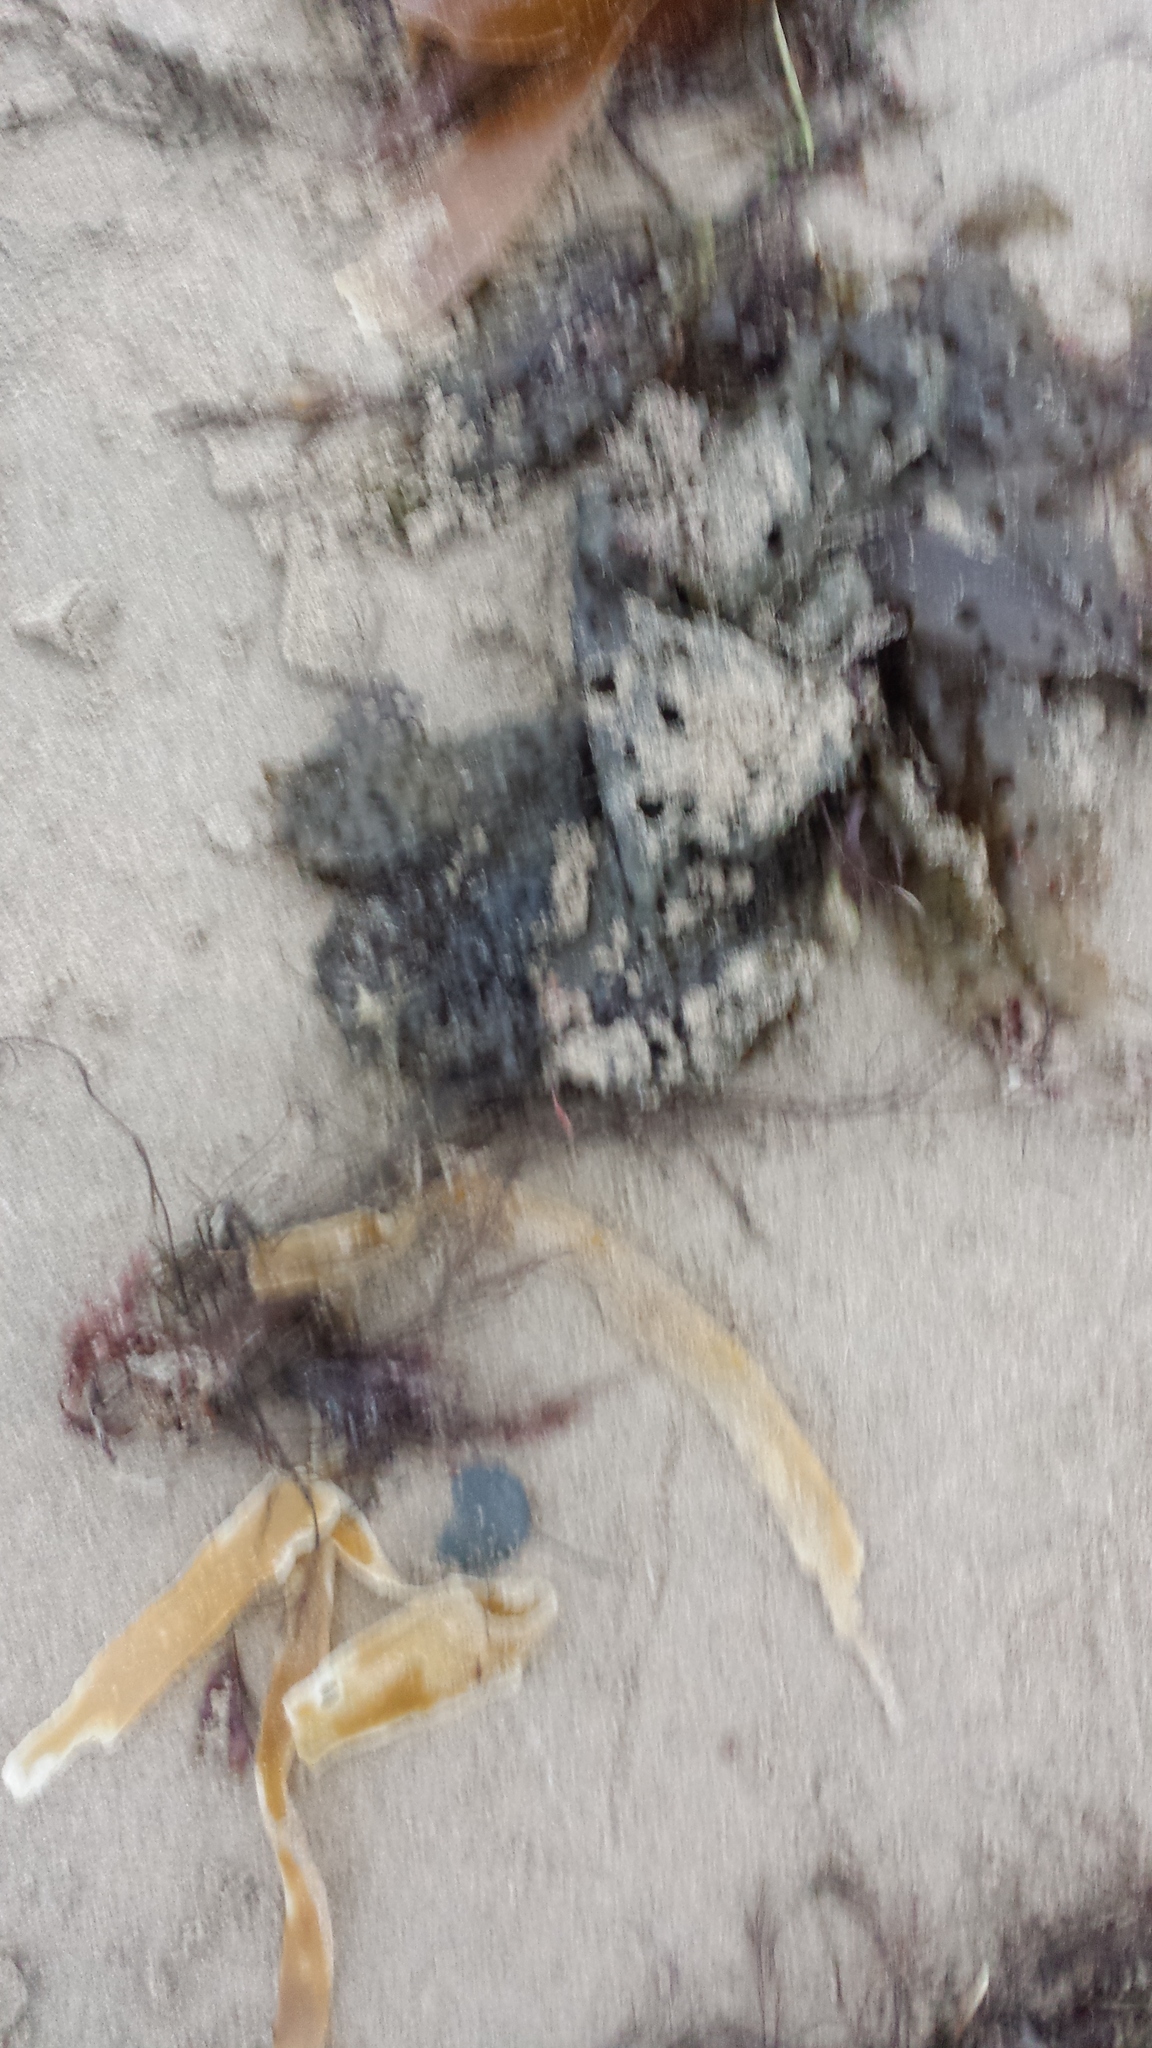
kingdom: Chromista
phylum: Ochrophyta
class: Phaeophyceae
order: Laminariales
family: Costariaceae
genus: Agarum
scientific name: Agarum clathratum
